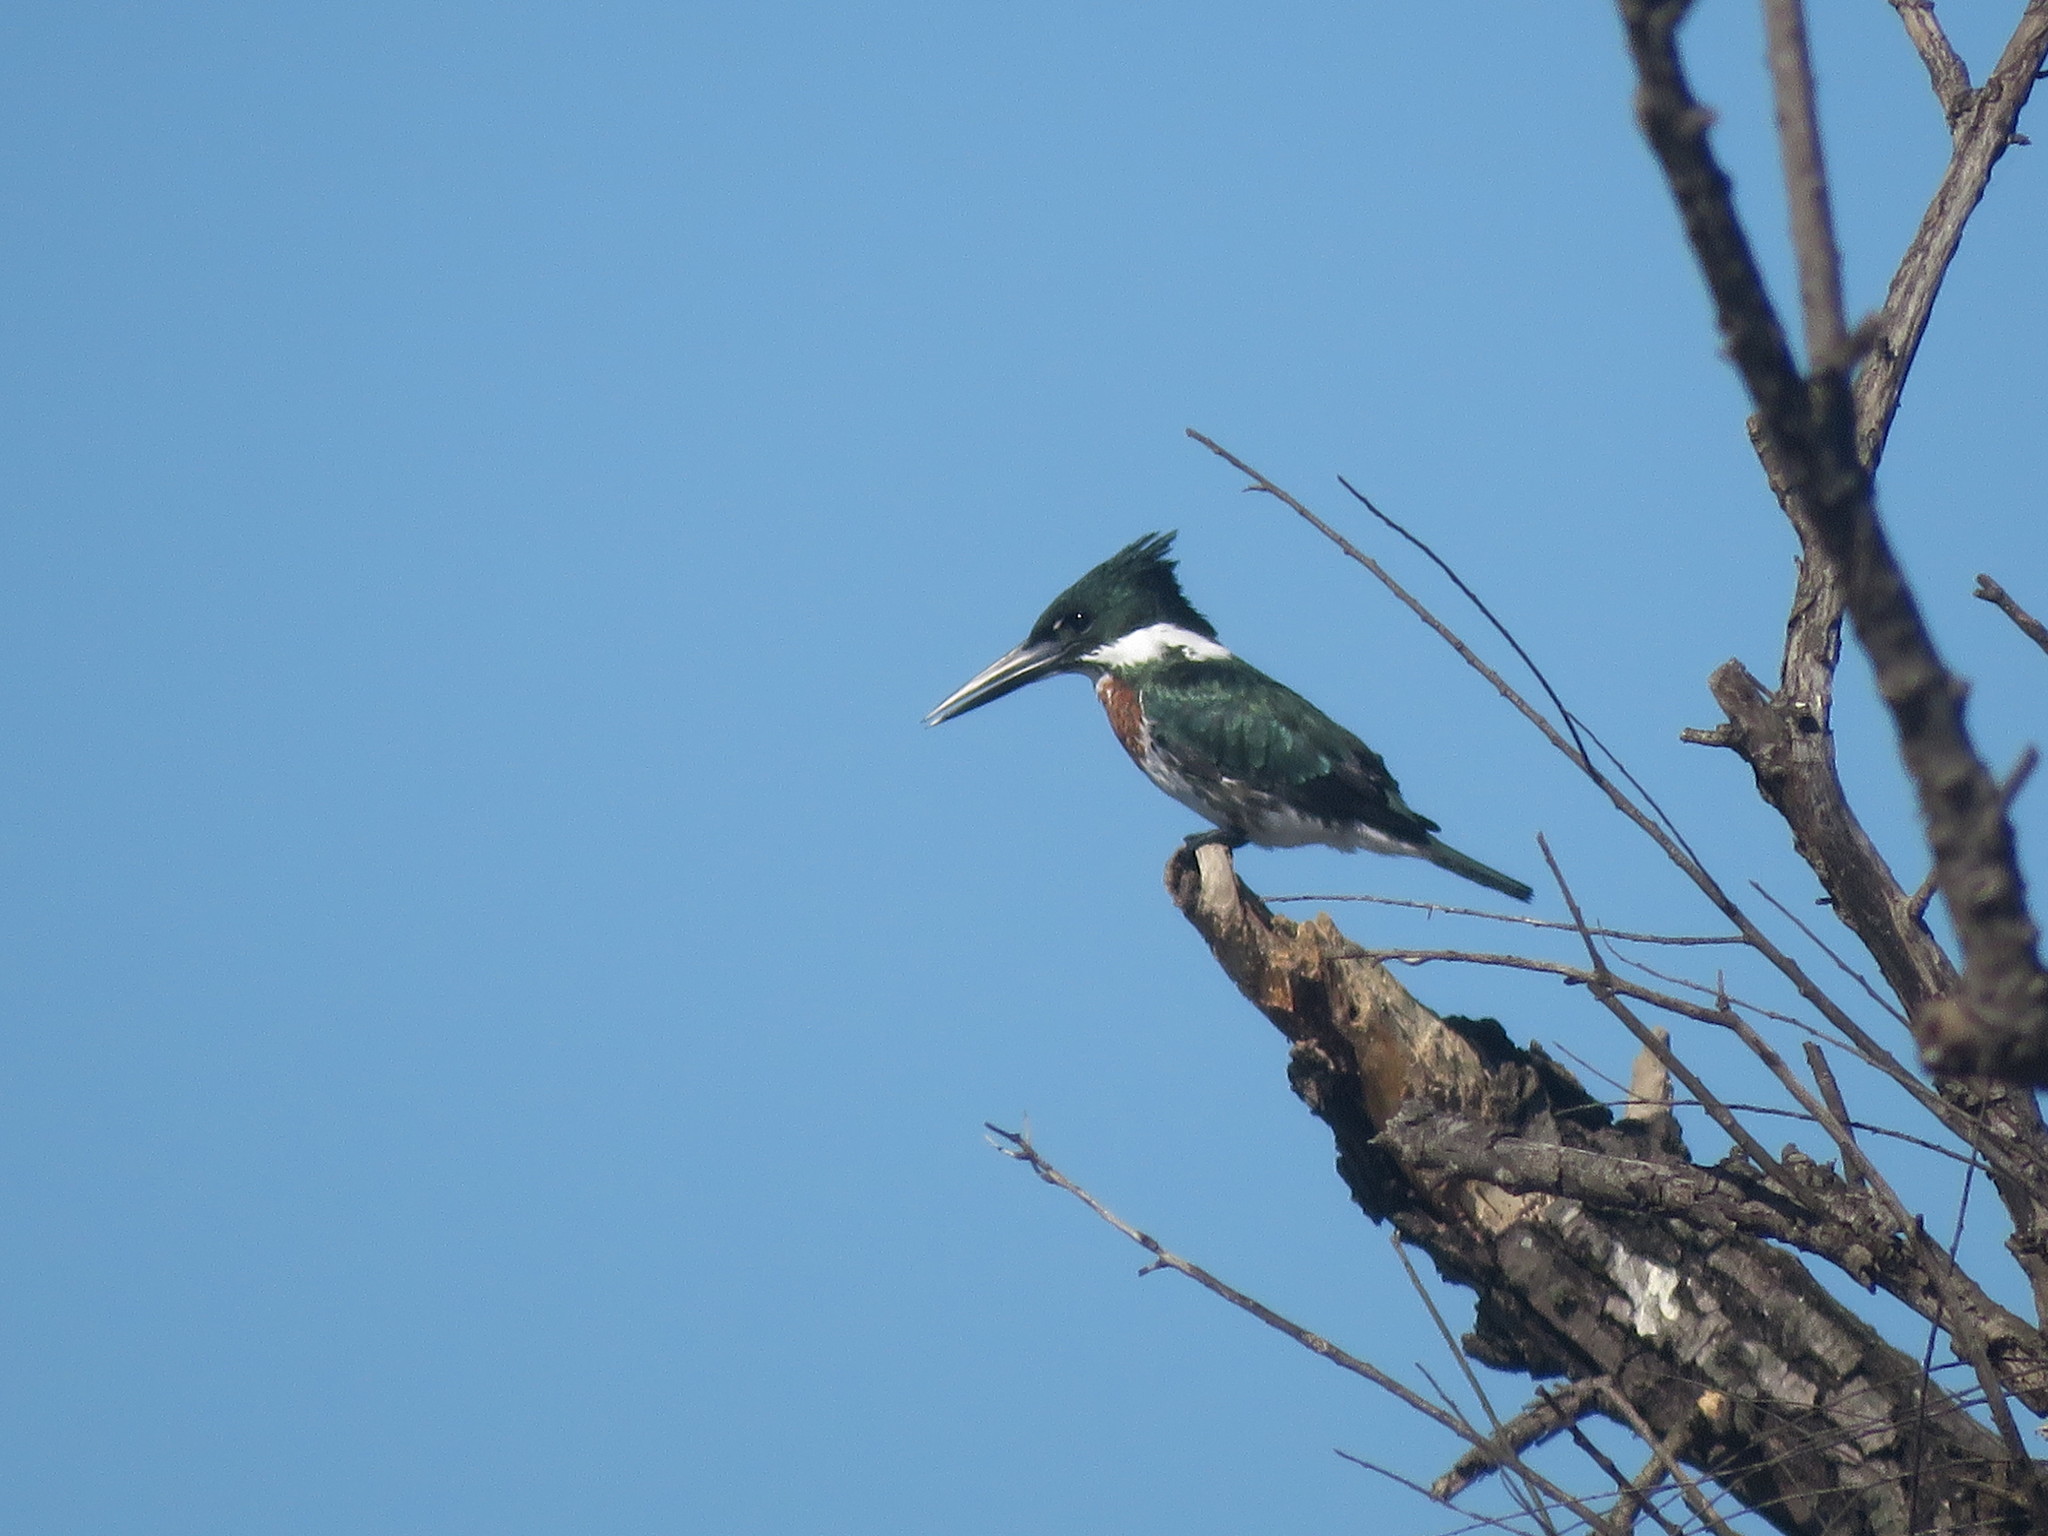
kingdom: Animalia
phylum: Chordata
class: Aves
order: Coraciiformes
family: Alcedinidae
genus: Chloroceryle
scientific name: Chloroceryle amazona
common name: Amazon kingfisher
